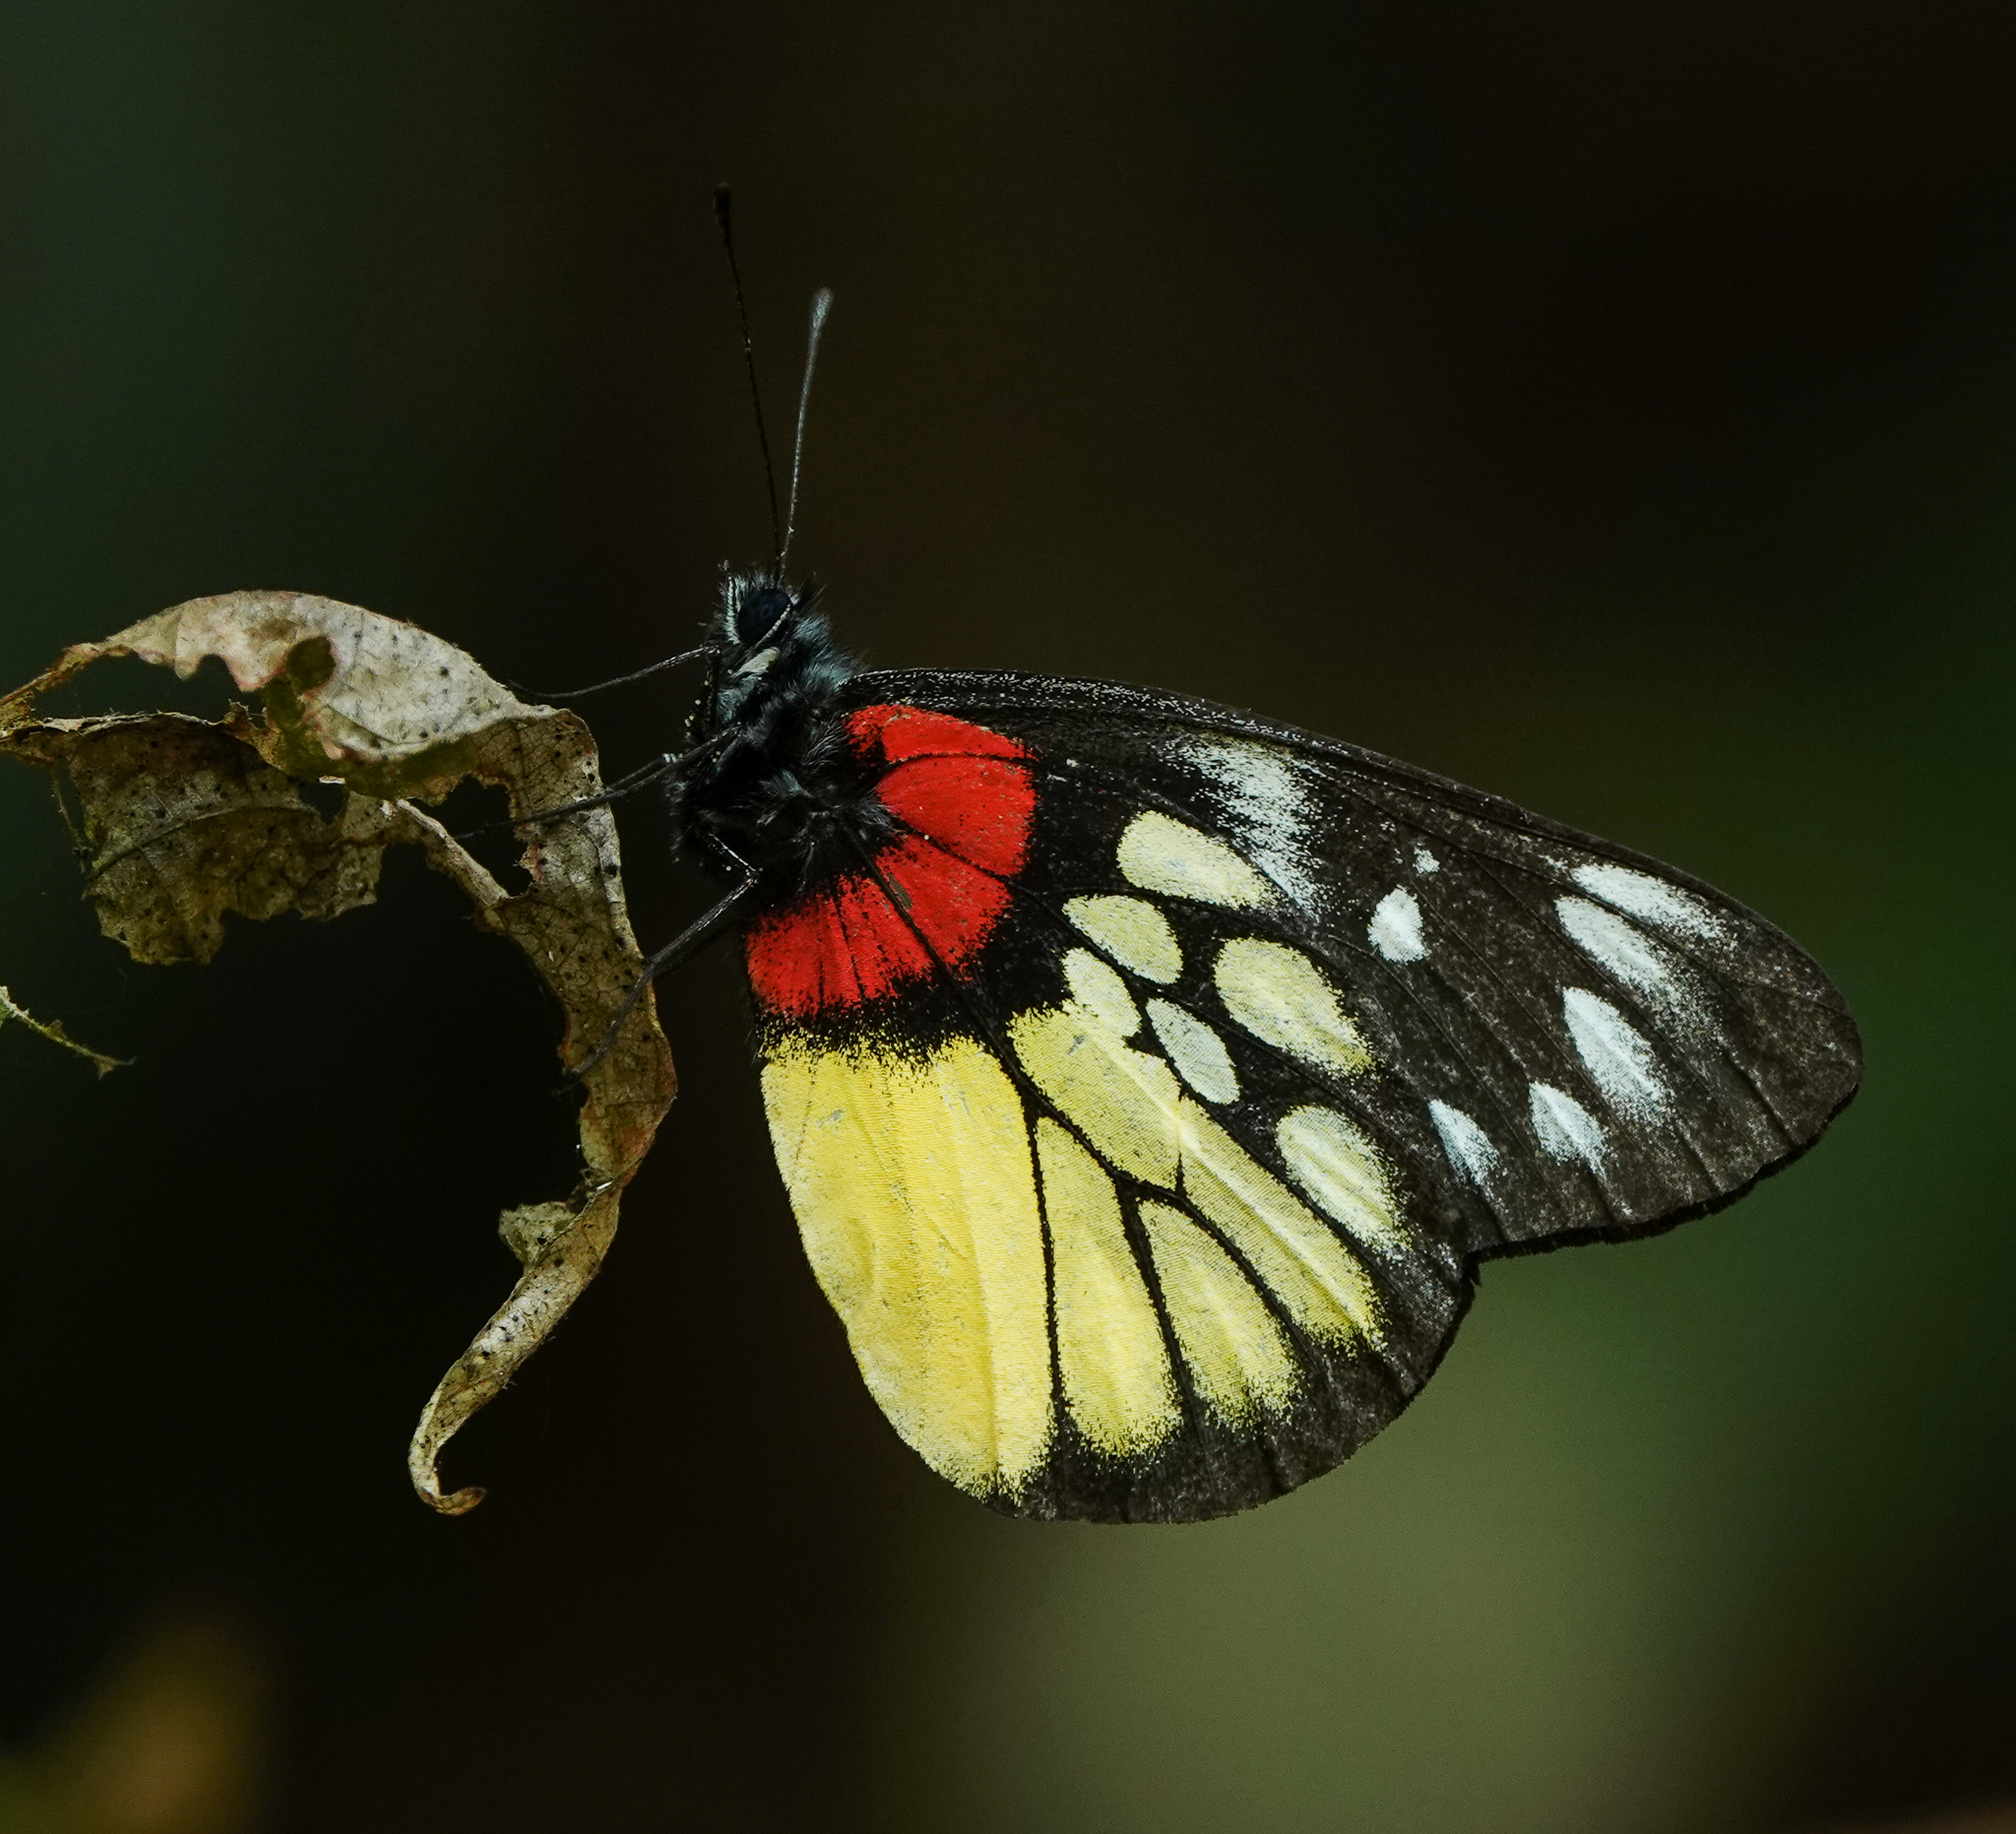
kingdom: Animalia
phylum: Arthropoda
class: Insecta
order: Lepidoptera
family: Pieridae
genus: Delias
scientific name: Delias pasithoe
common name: Red-base jezebel
